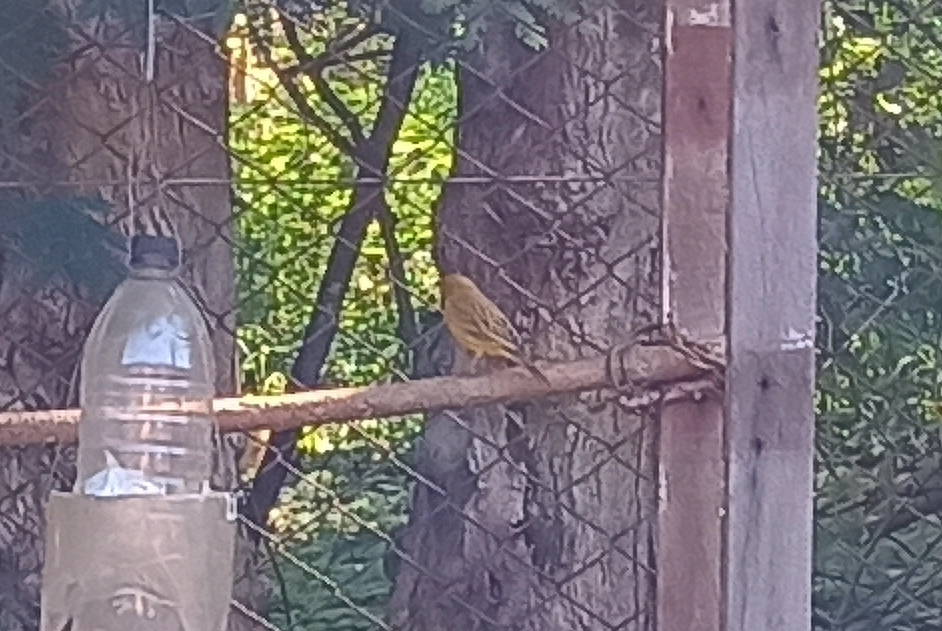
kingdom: Animalia
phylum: Chordata
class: Aves
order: Passeriformes
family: Thraupidae
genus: Sicalis
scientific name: Sicalis flaveola
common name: Saffron finch
